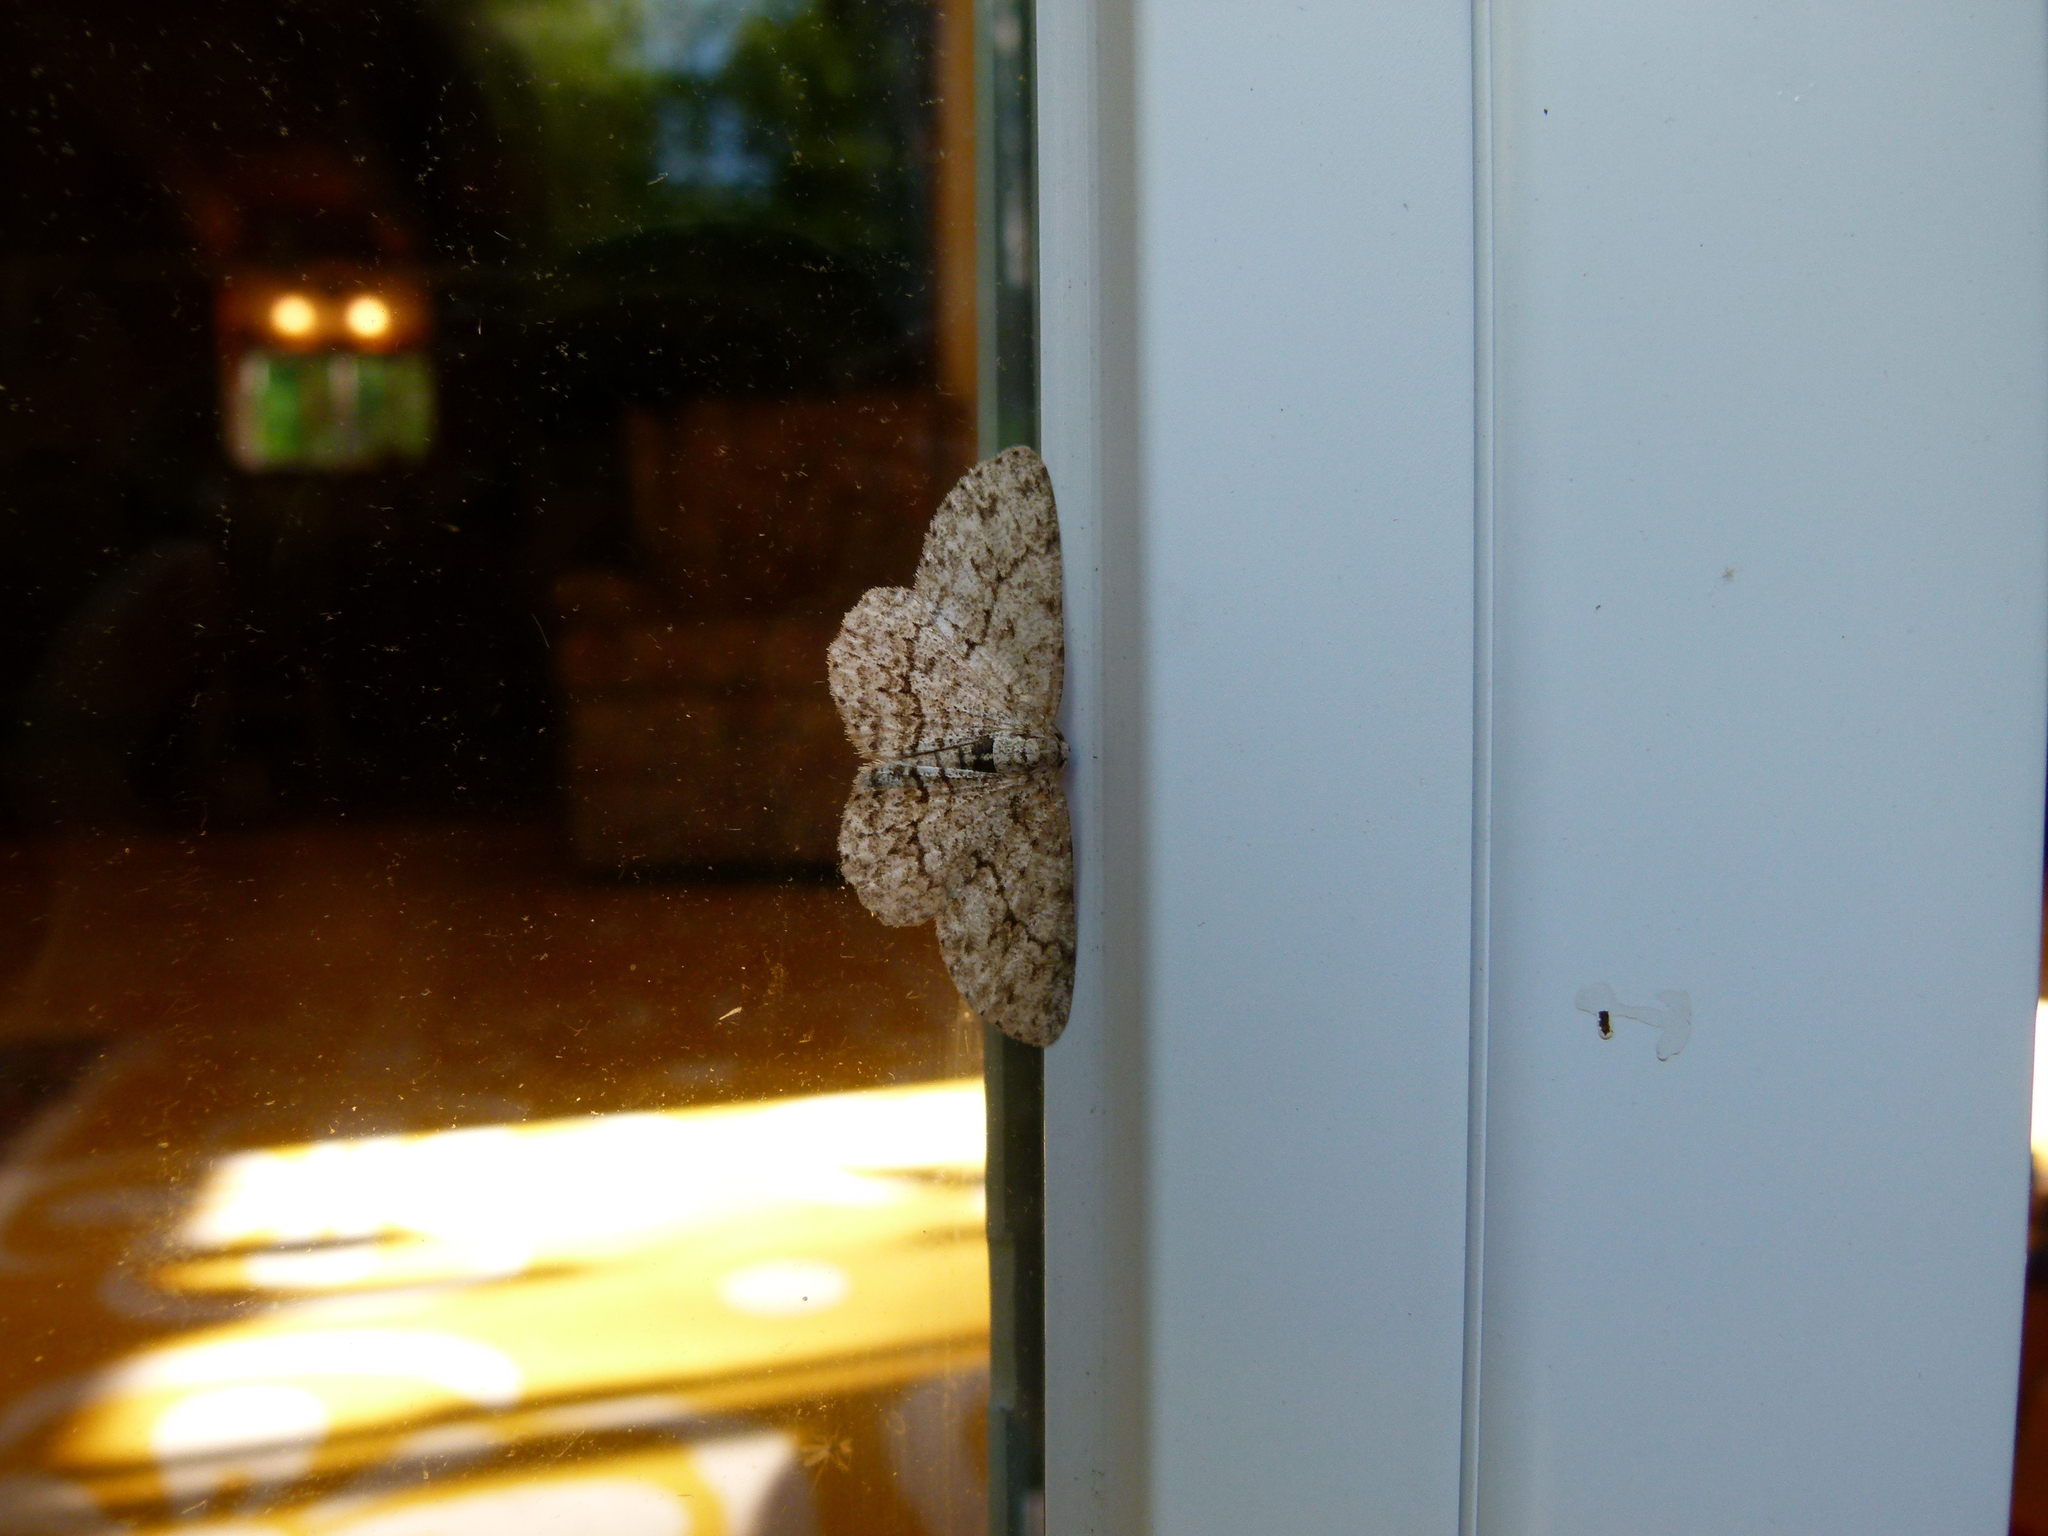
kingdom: Animalia
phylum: Arthropoda
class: Insecta
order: Lepidoptera
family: Geometridae
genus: Ectropis
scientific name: Ectropis crepuscularia
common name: Engrailed
